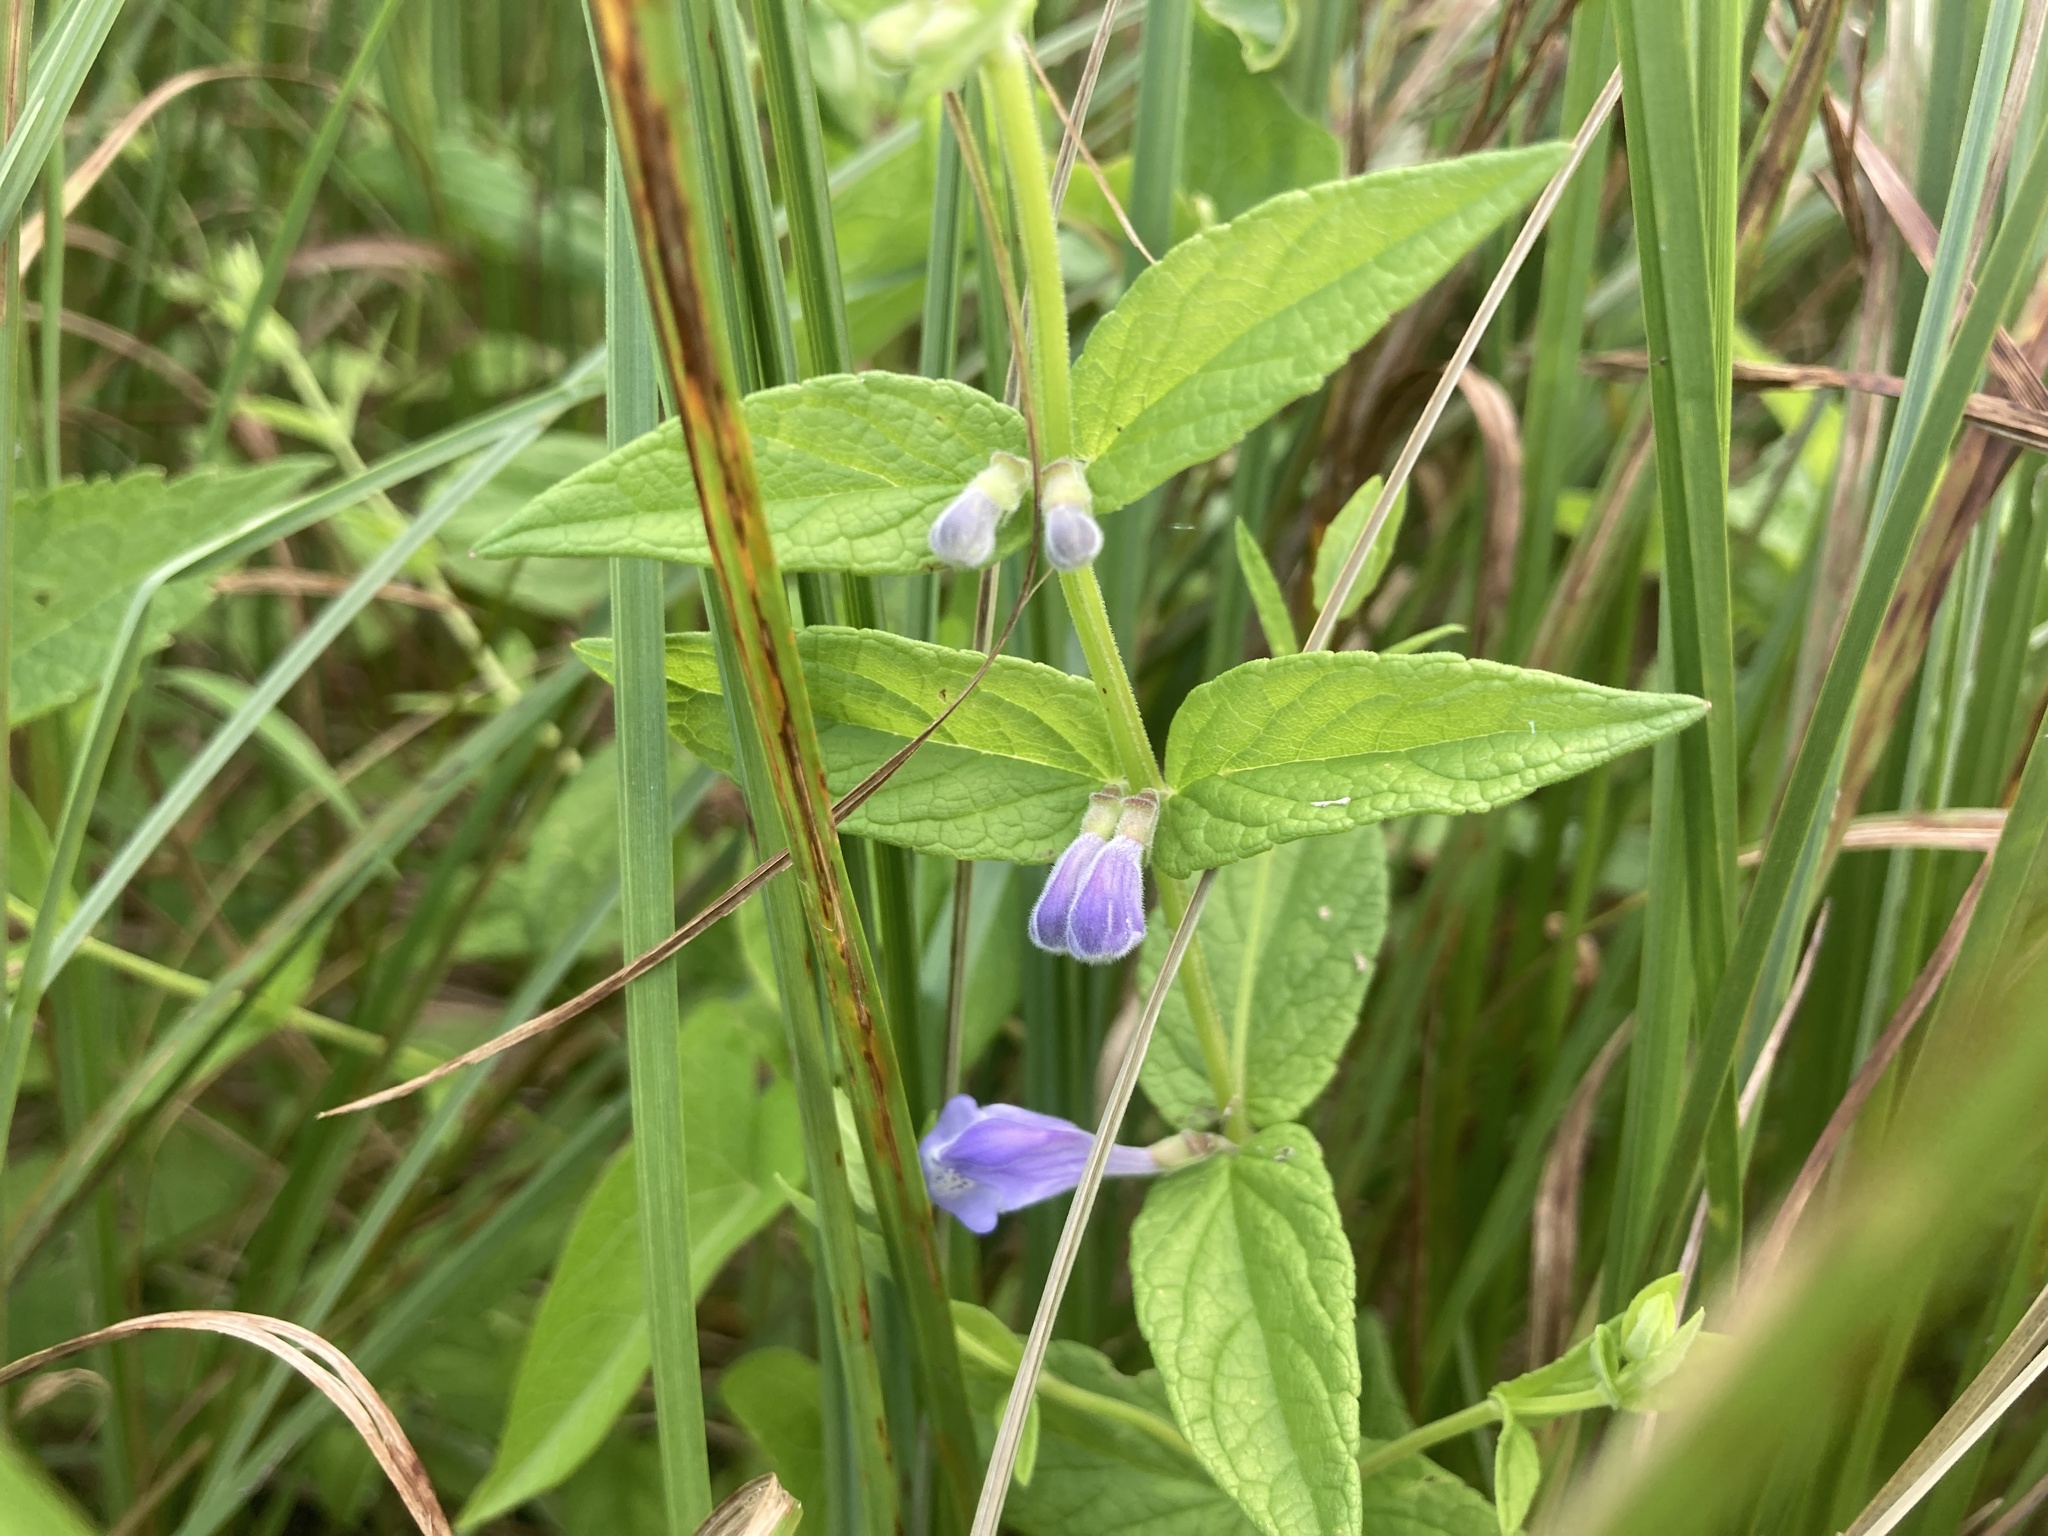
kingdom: Plantae
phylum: Tracheophyta
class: Magnoliopsida
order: Lamiales
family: Lamiaceae
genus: Scutellaria
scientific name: Scutellaria galericulata
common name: Skullcap
